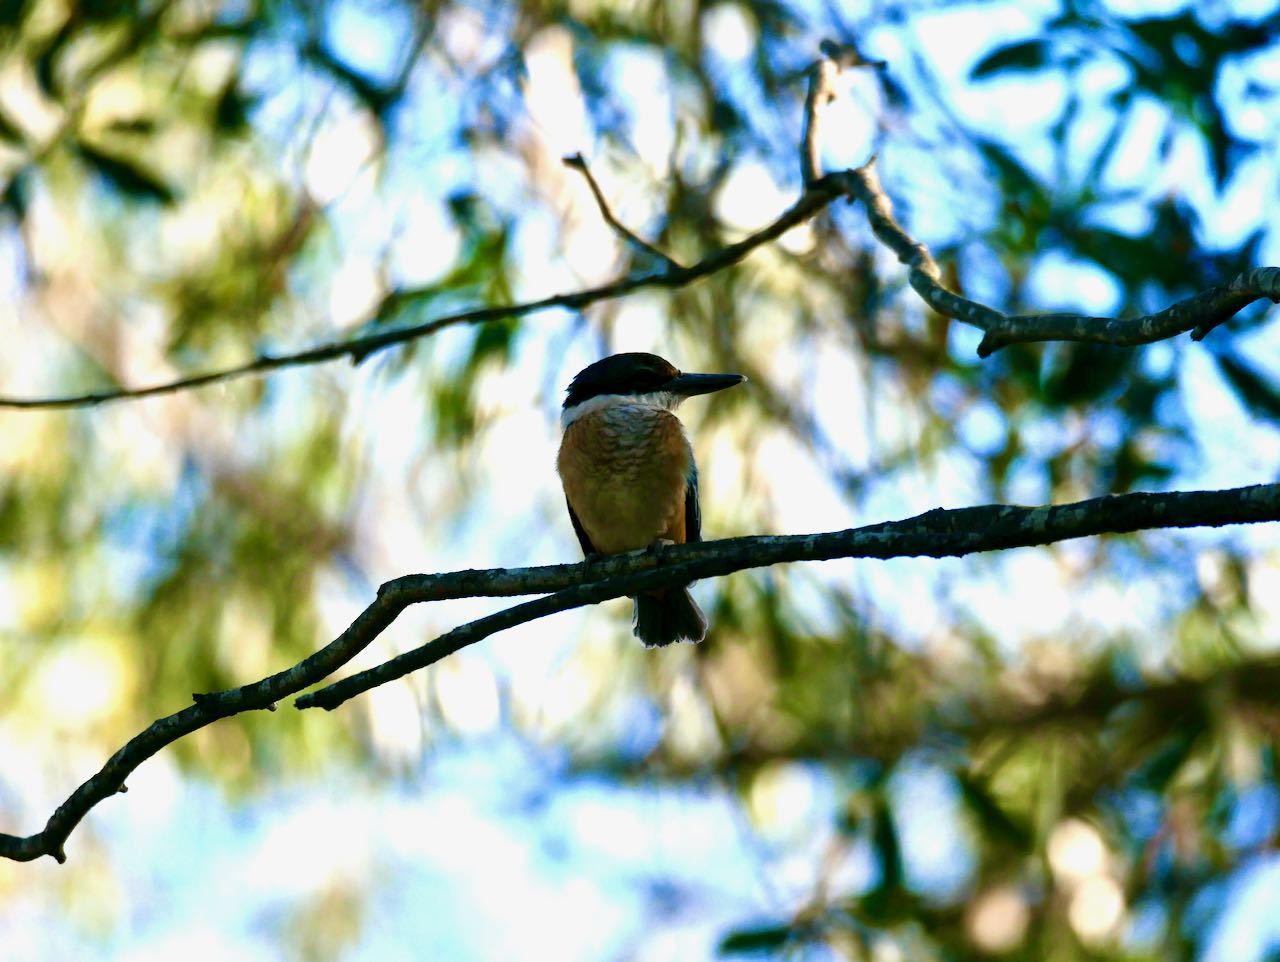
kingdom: Animalia
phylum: Chordata
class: Aves
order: Coraciiformes
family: Alcedinidae
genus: Todiramphus
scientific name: Todiramphus sanctus
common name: Sacred kingfisher
